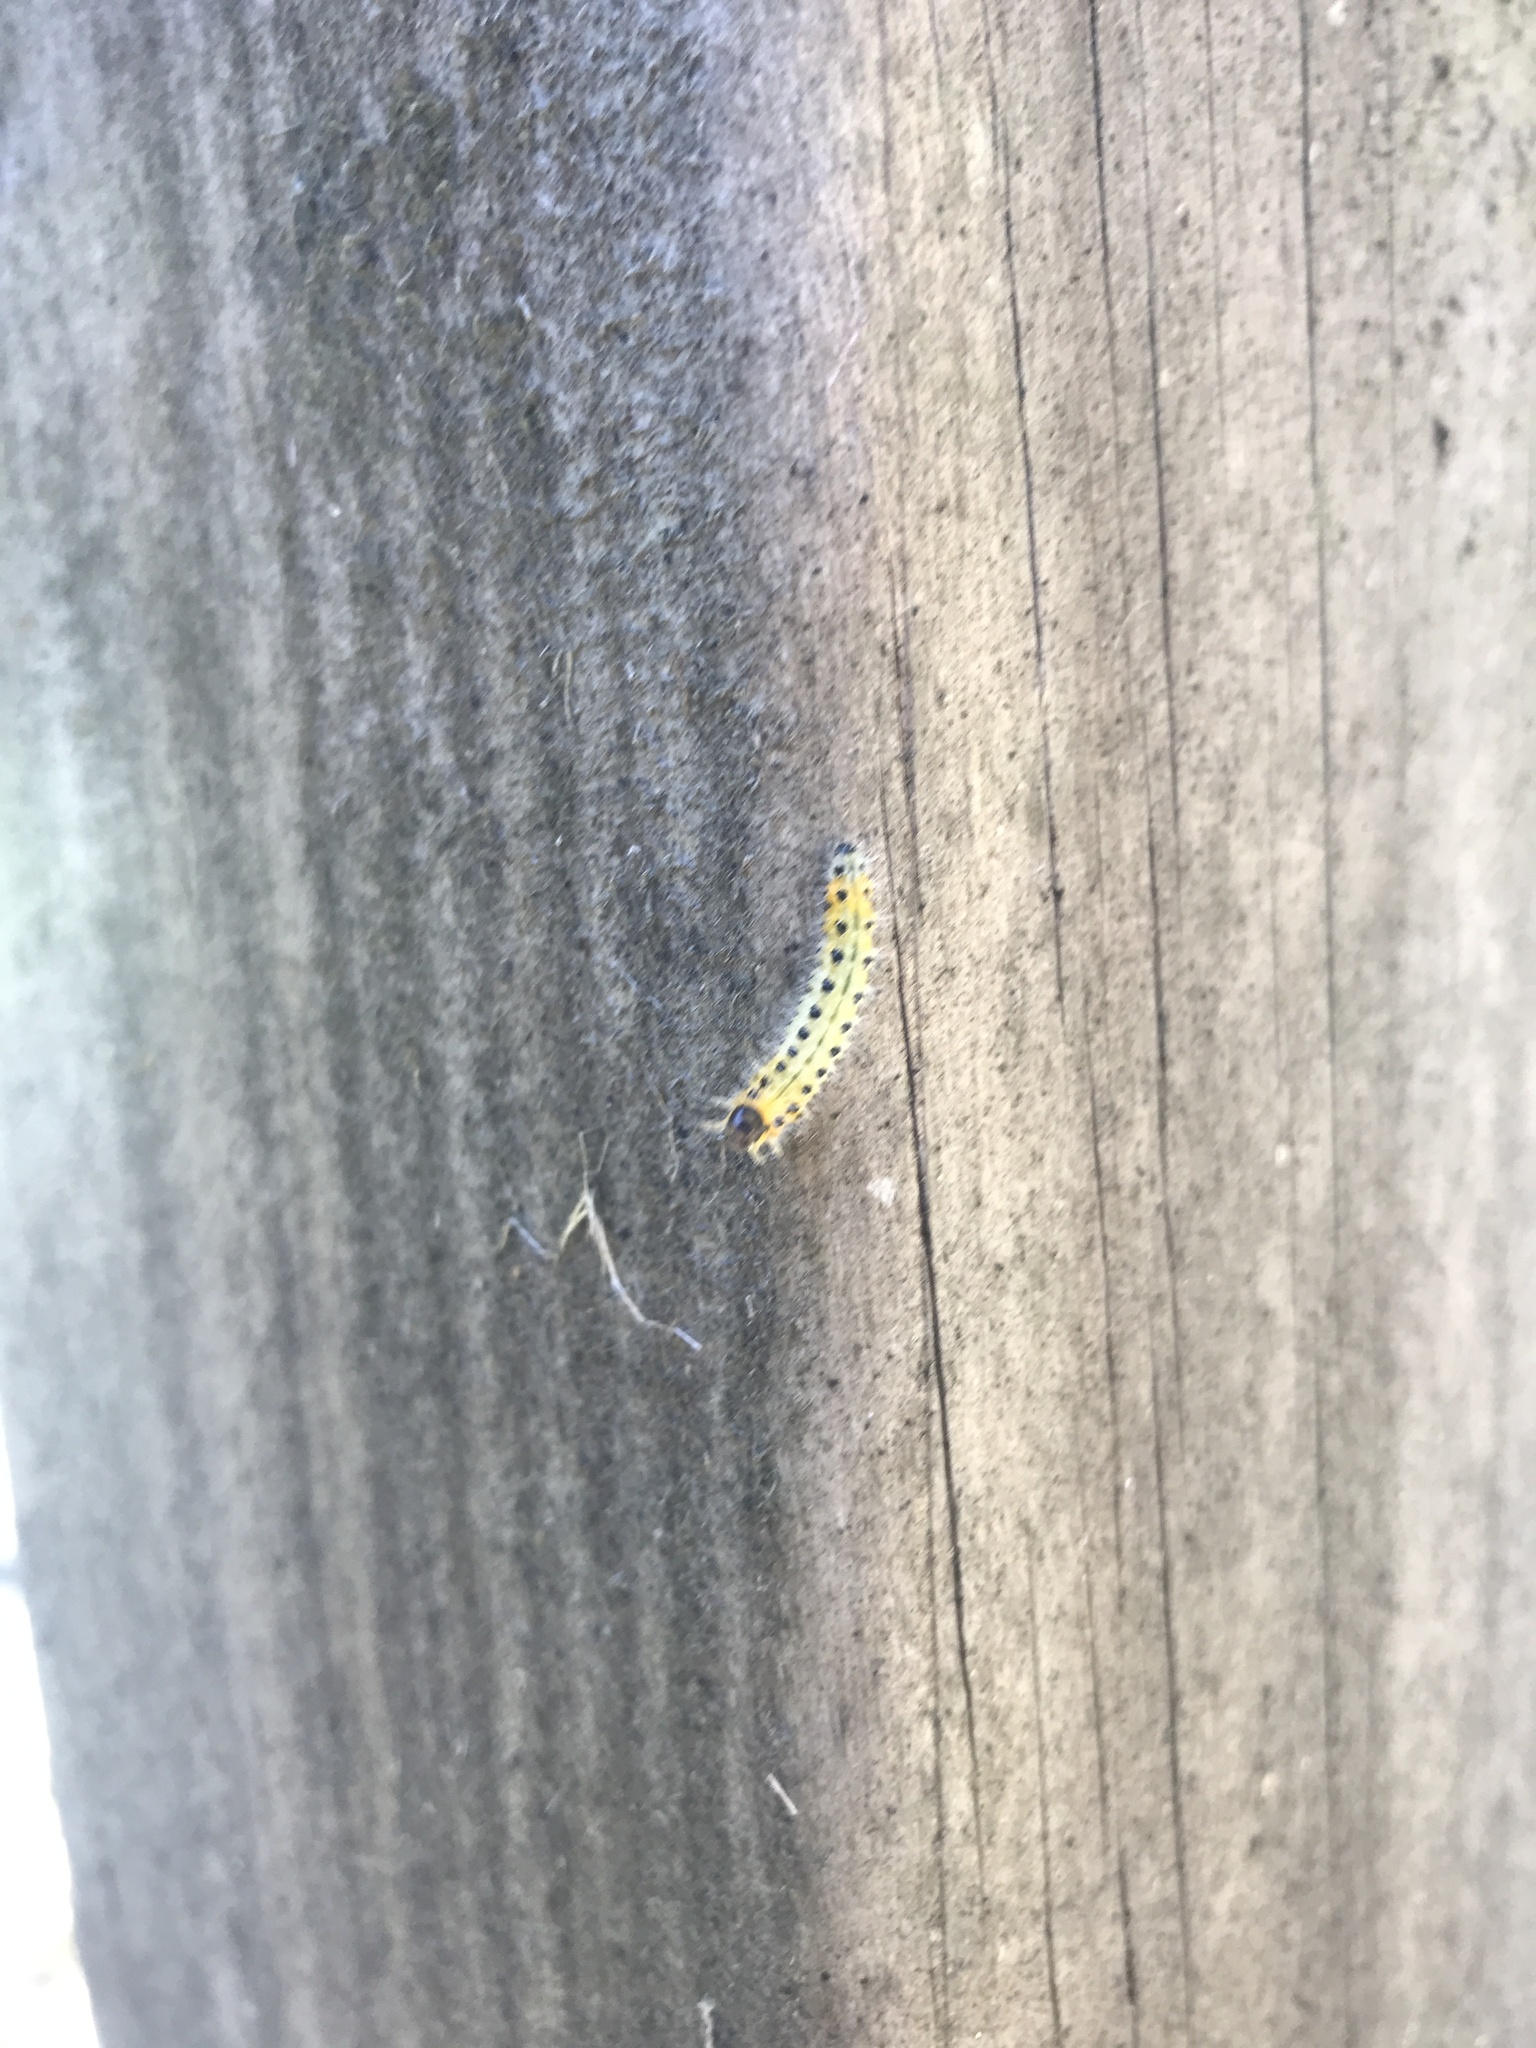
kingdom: Animalia
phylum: Arthropoda
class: Insecta
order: Hymenoptera
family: Tenthredinidae
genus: Cladius
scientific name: Cladius grandis
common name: Common sawfly
